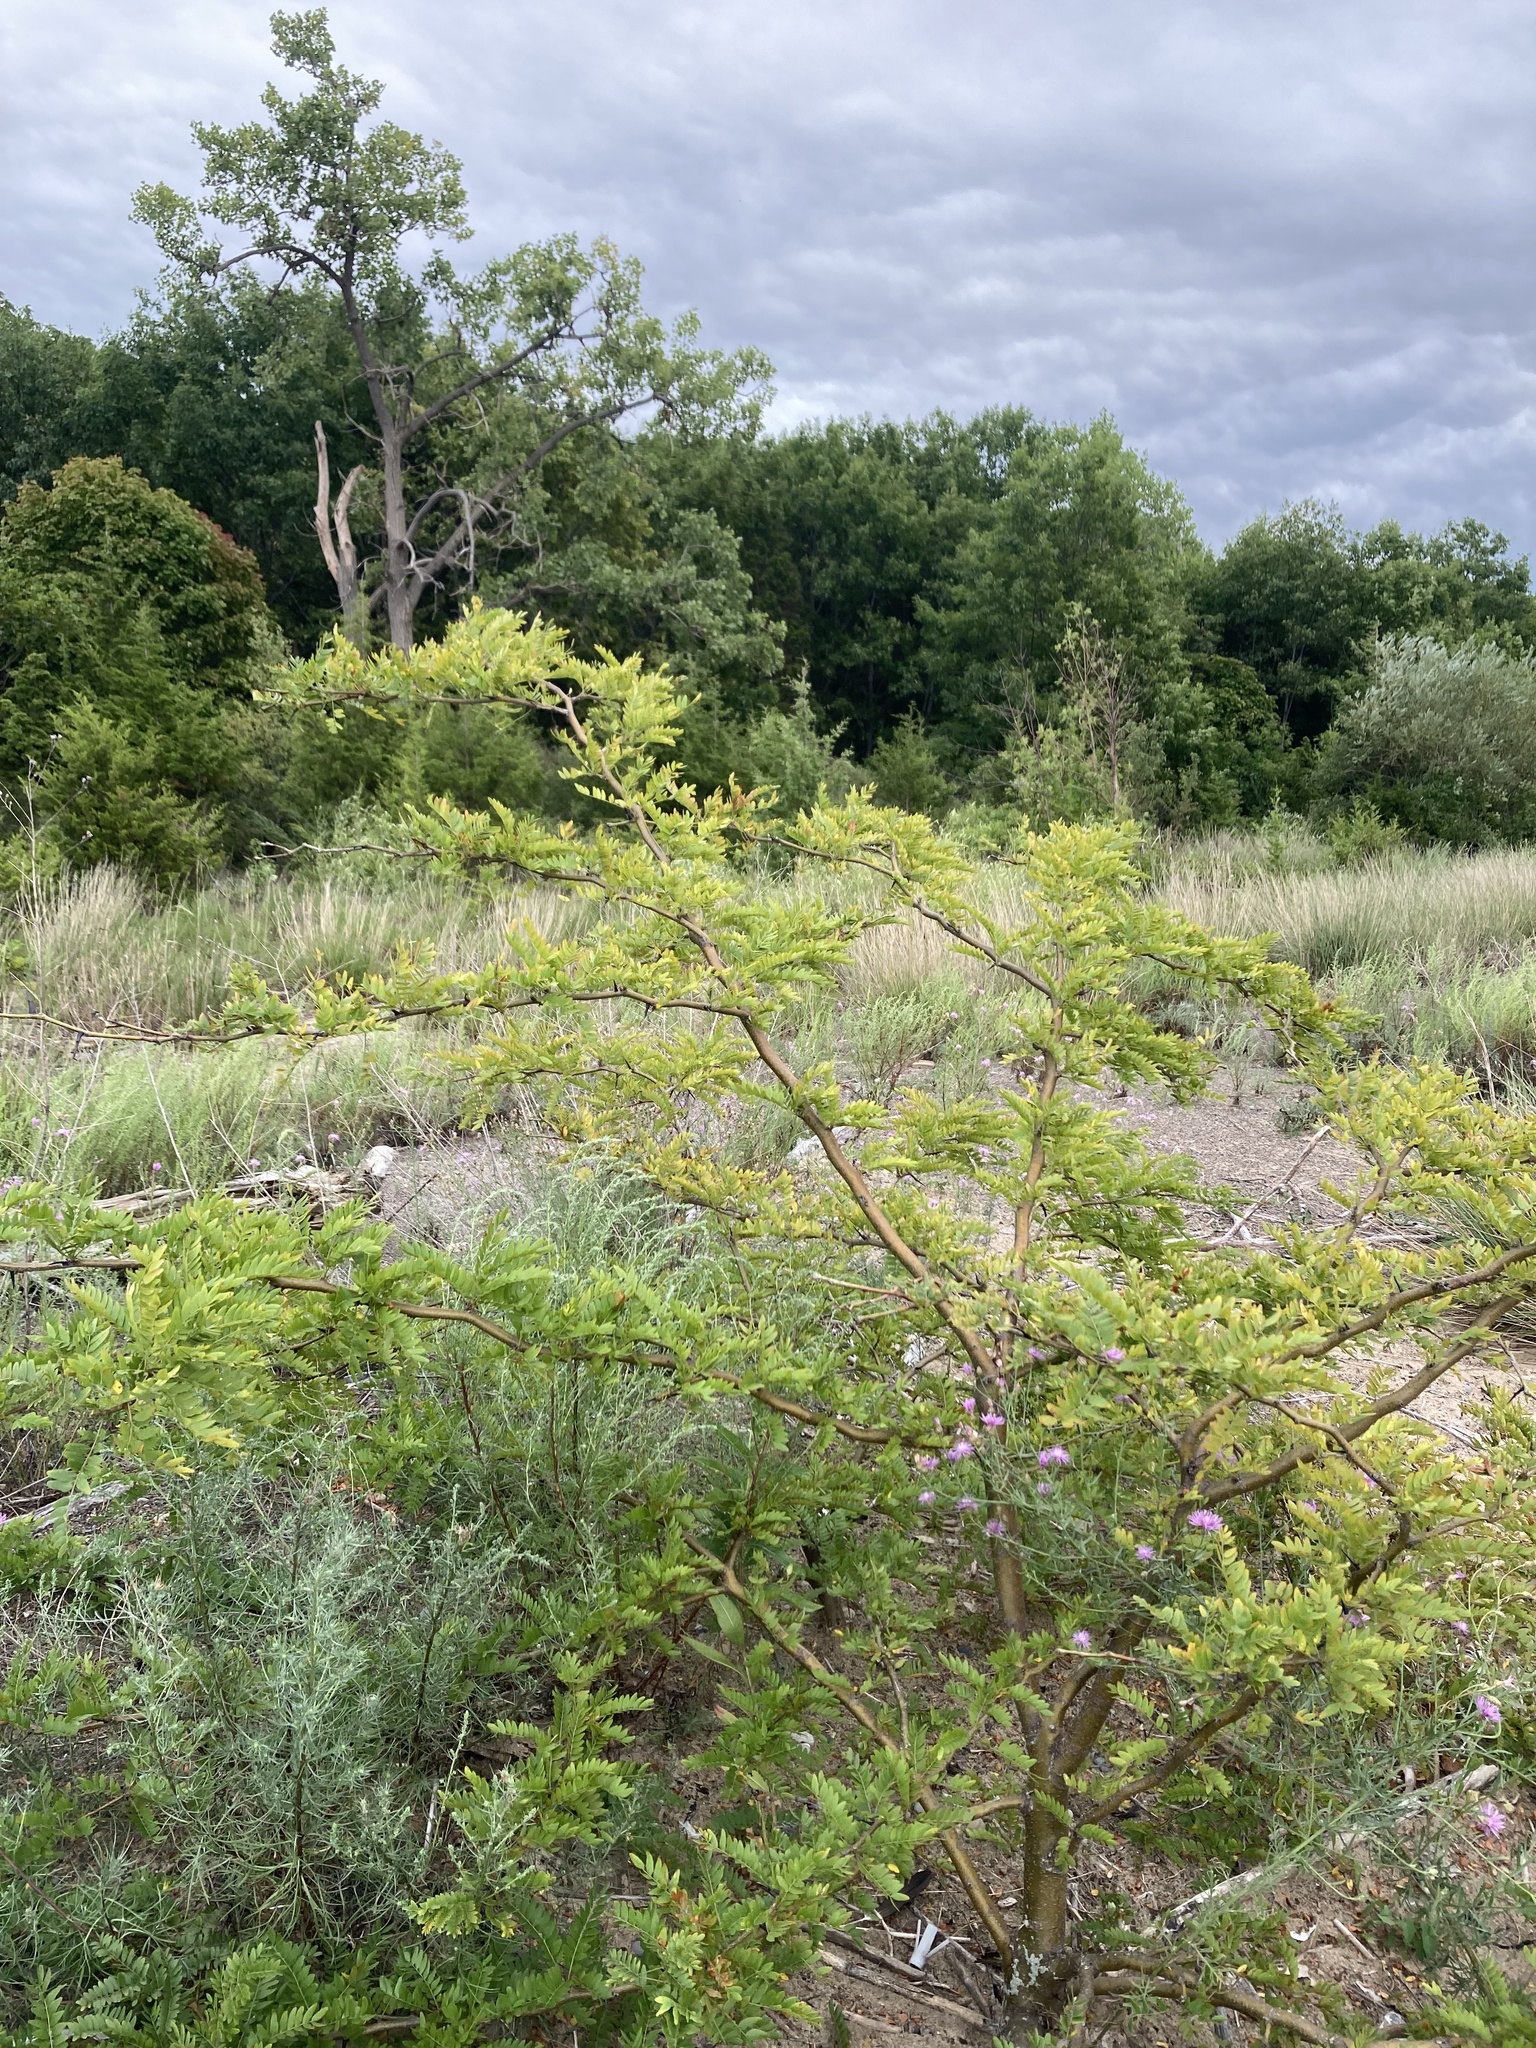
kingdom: Plantae
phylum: Tracheophyta
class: Magnoliopsida
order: Fabales
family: Fabaceae
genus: Gleditsia
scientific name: Gleditsia triacanthos
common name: Common honeylocust
